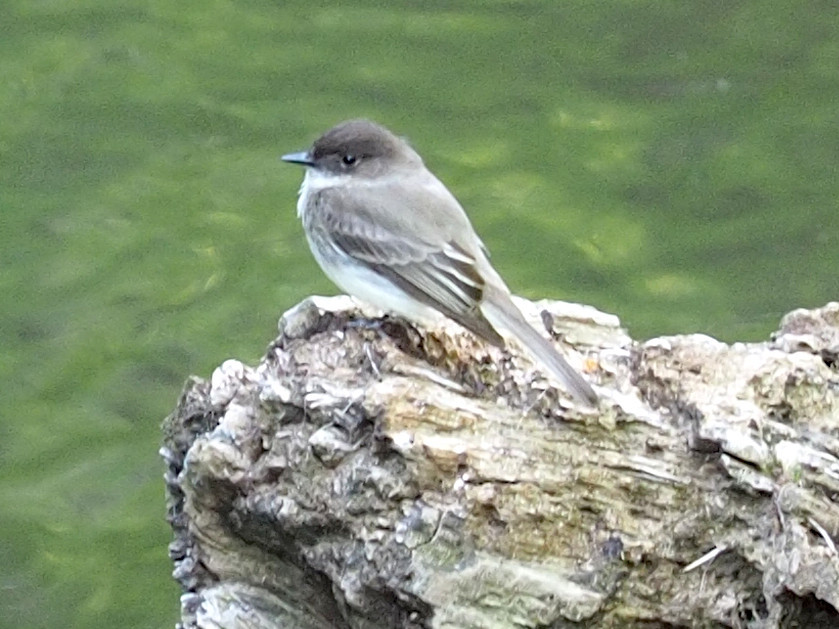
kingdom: Animalia
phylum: Chordata
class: Aves
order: Passeriformes
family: Tyrannidae
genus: Sayornis
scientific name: Sayornis phoebe
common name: Eastern phoebe
